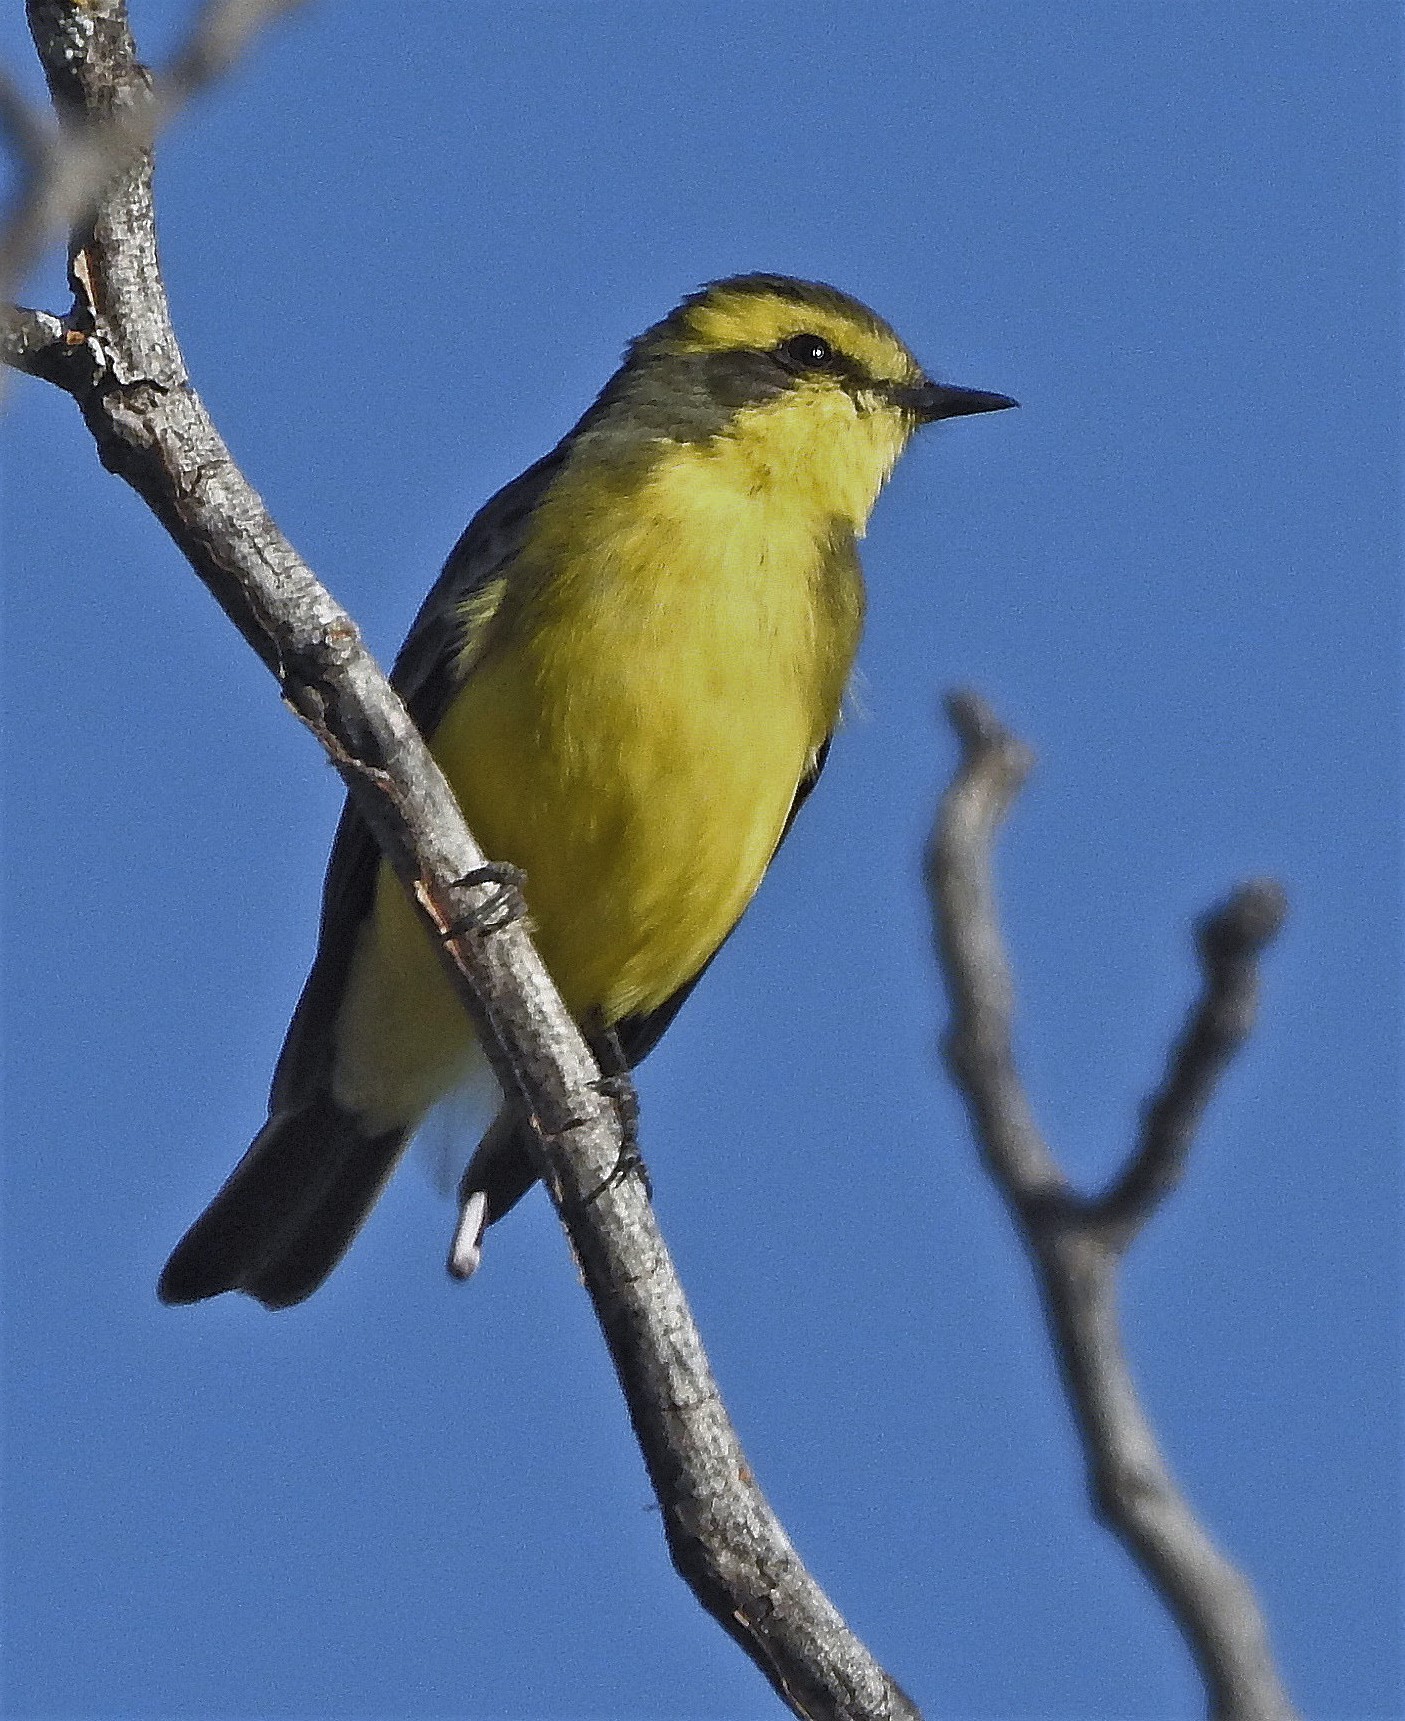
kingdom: Animalia
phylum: Chordata
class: Aves
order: Passeriformes
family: Tyrannidae
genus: Satrapa
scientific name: Satrapa icterophrys
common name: Yellow-browed tyrant
